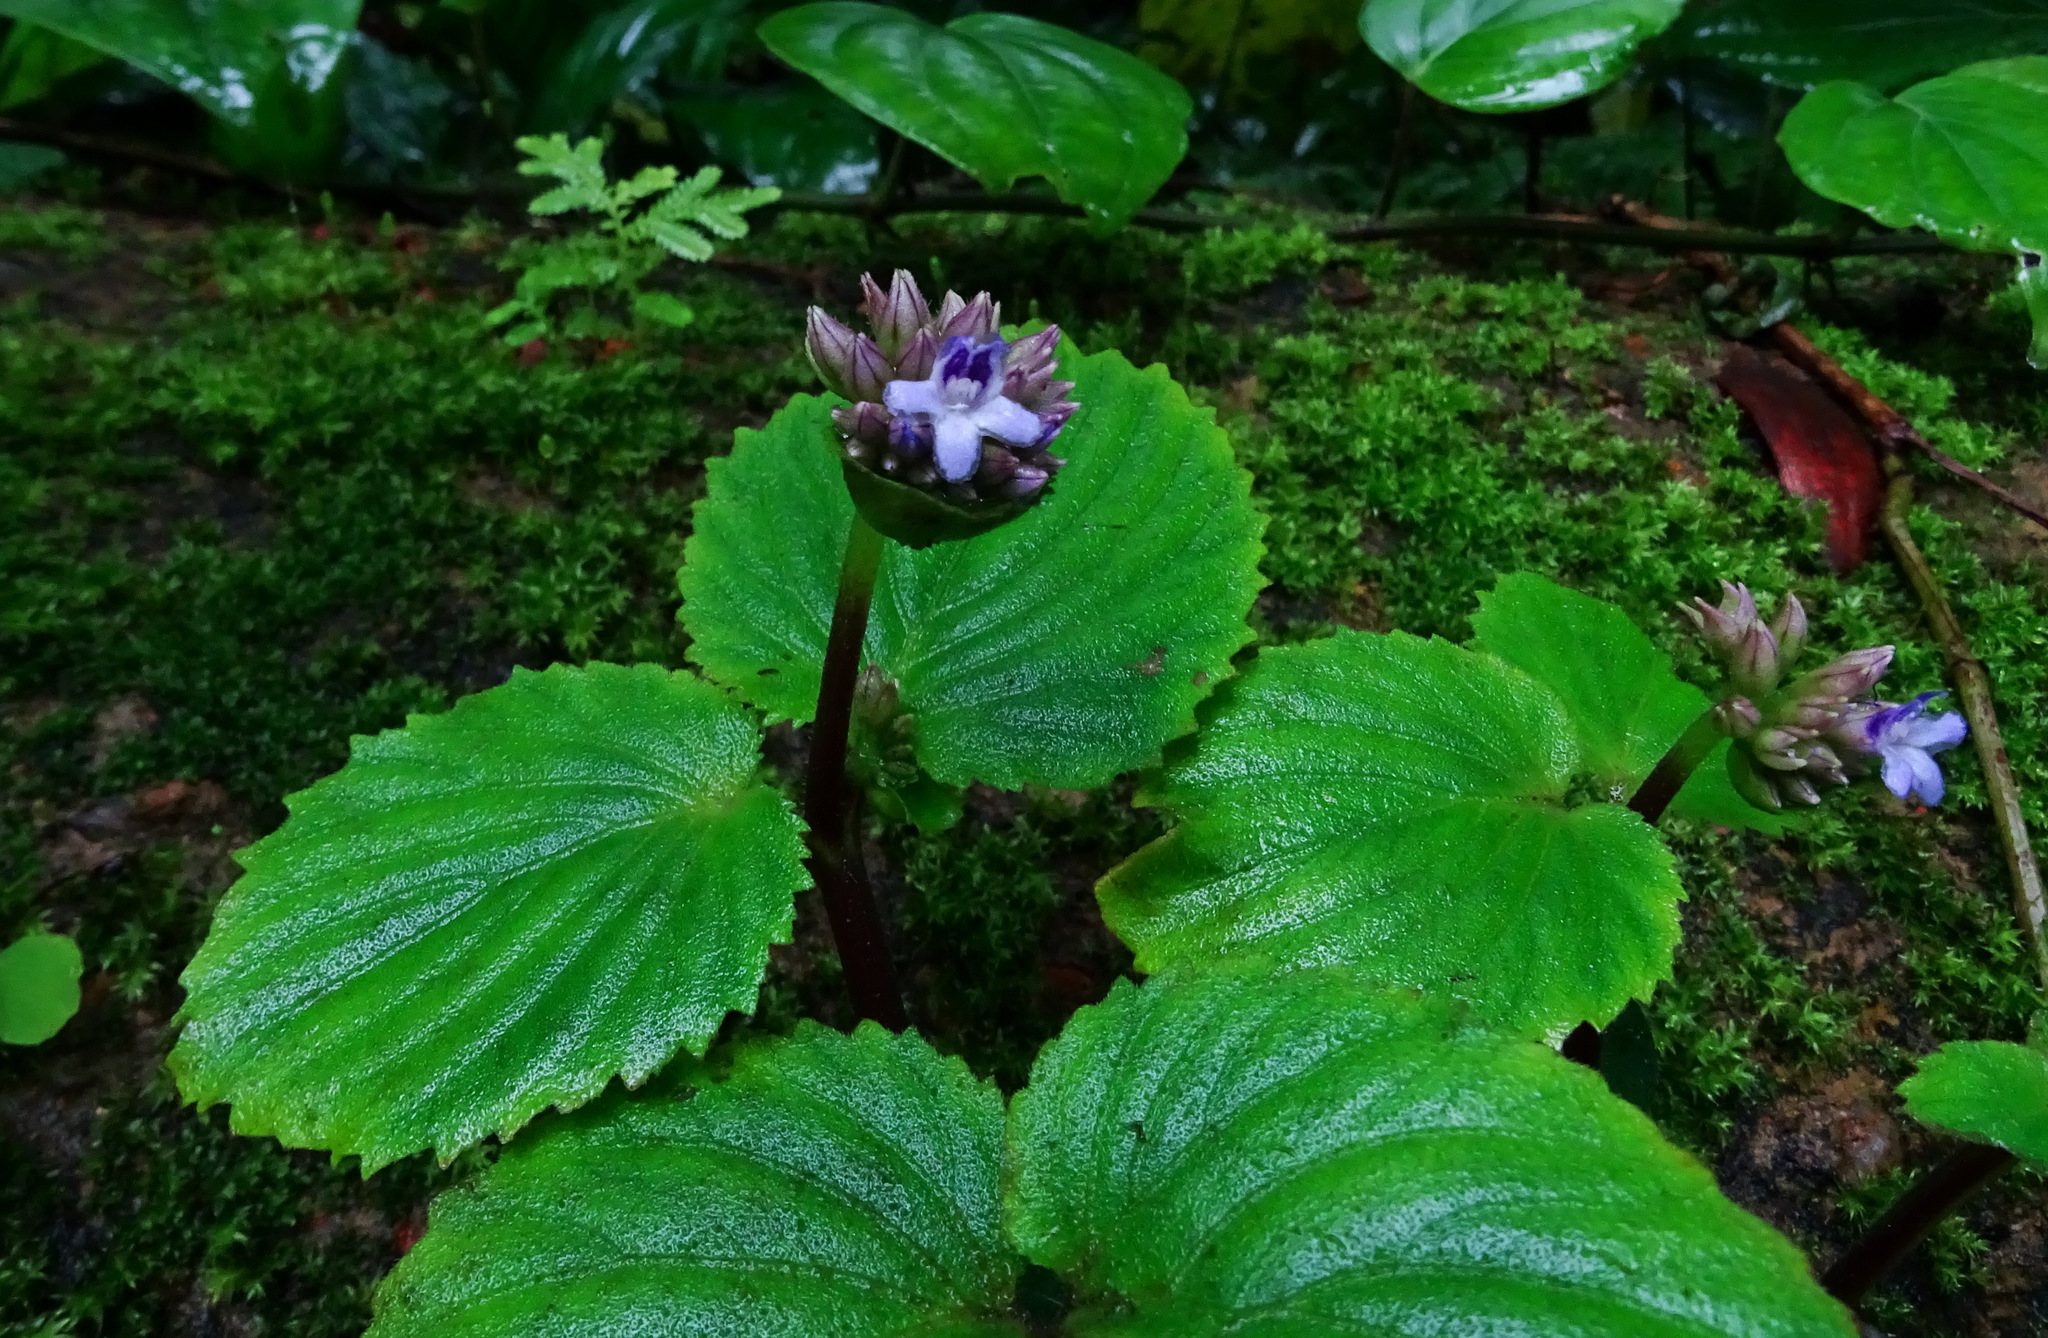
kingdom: Plantae
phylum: Tracheophyta
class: Magnoliopsida
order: Lamiales
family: Gesneriaceae
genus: Epithema
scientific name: Epithema carnosum
